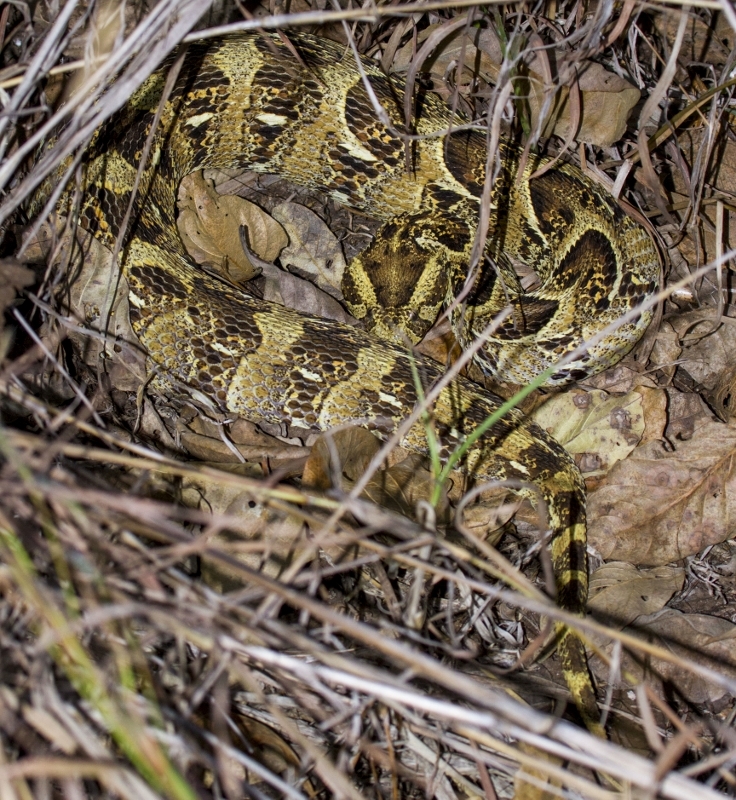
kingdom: Animalia
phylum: Chordata
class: Squamata
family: Viperidae
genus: Bitis
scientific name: Bitis arietans
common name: Puff adder
